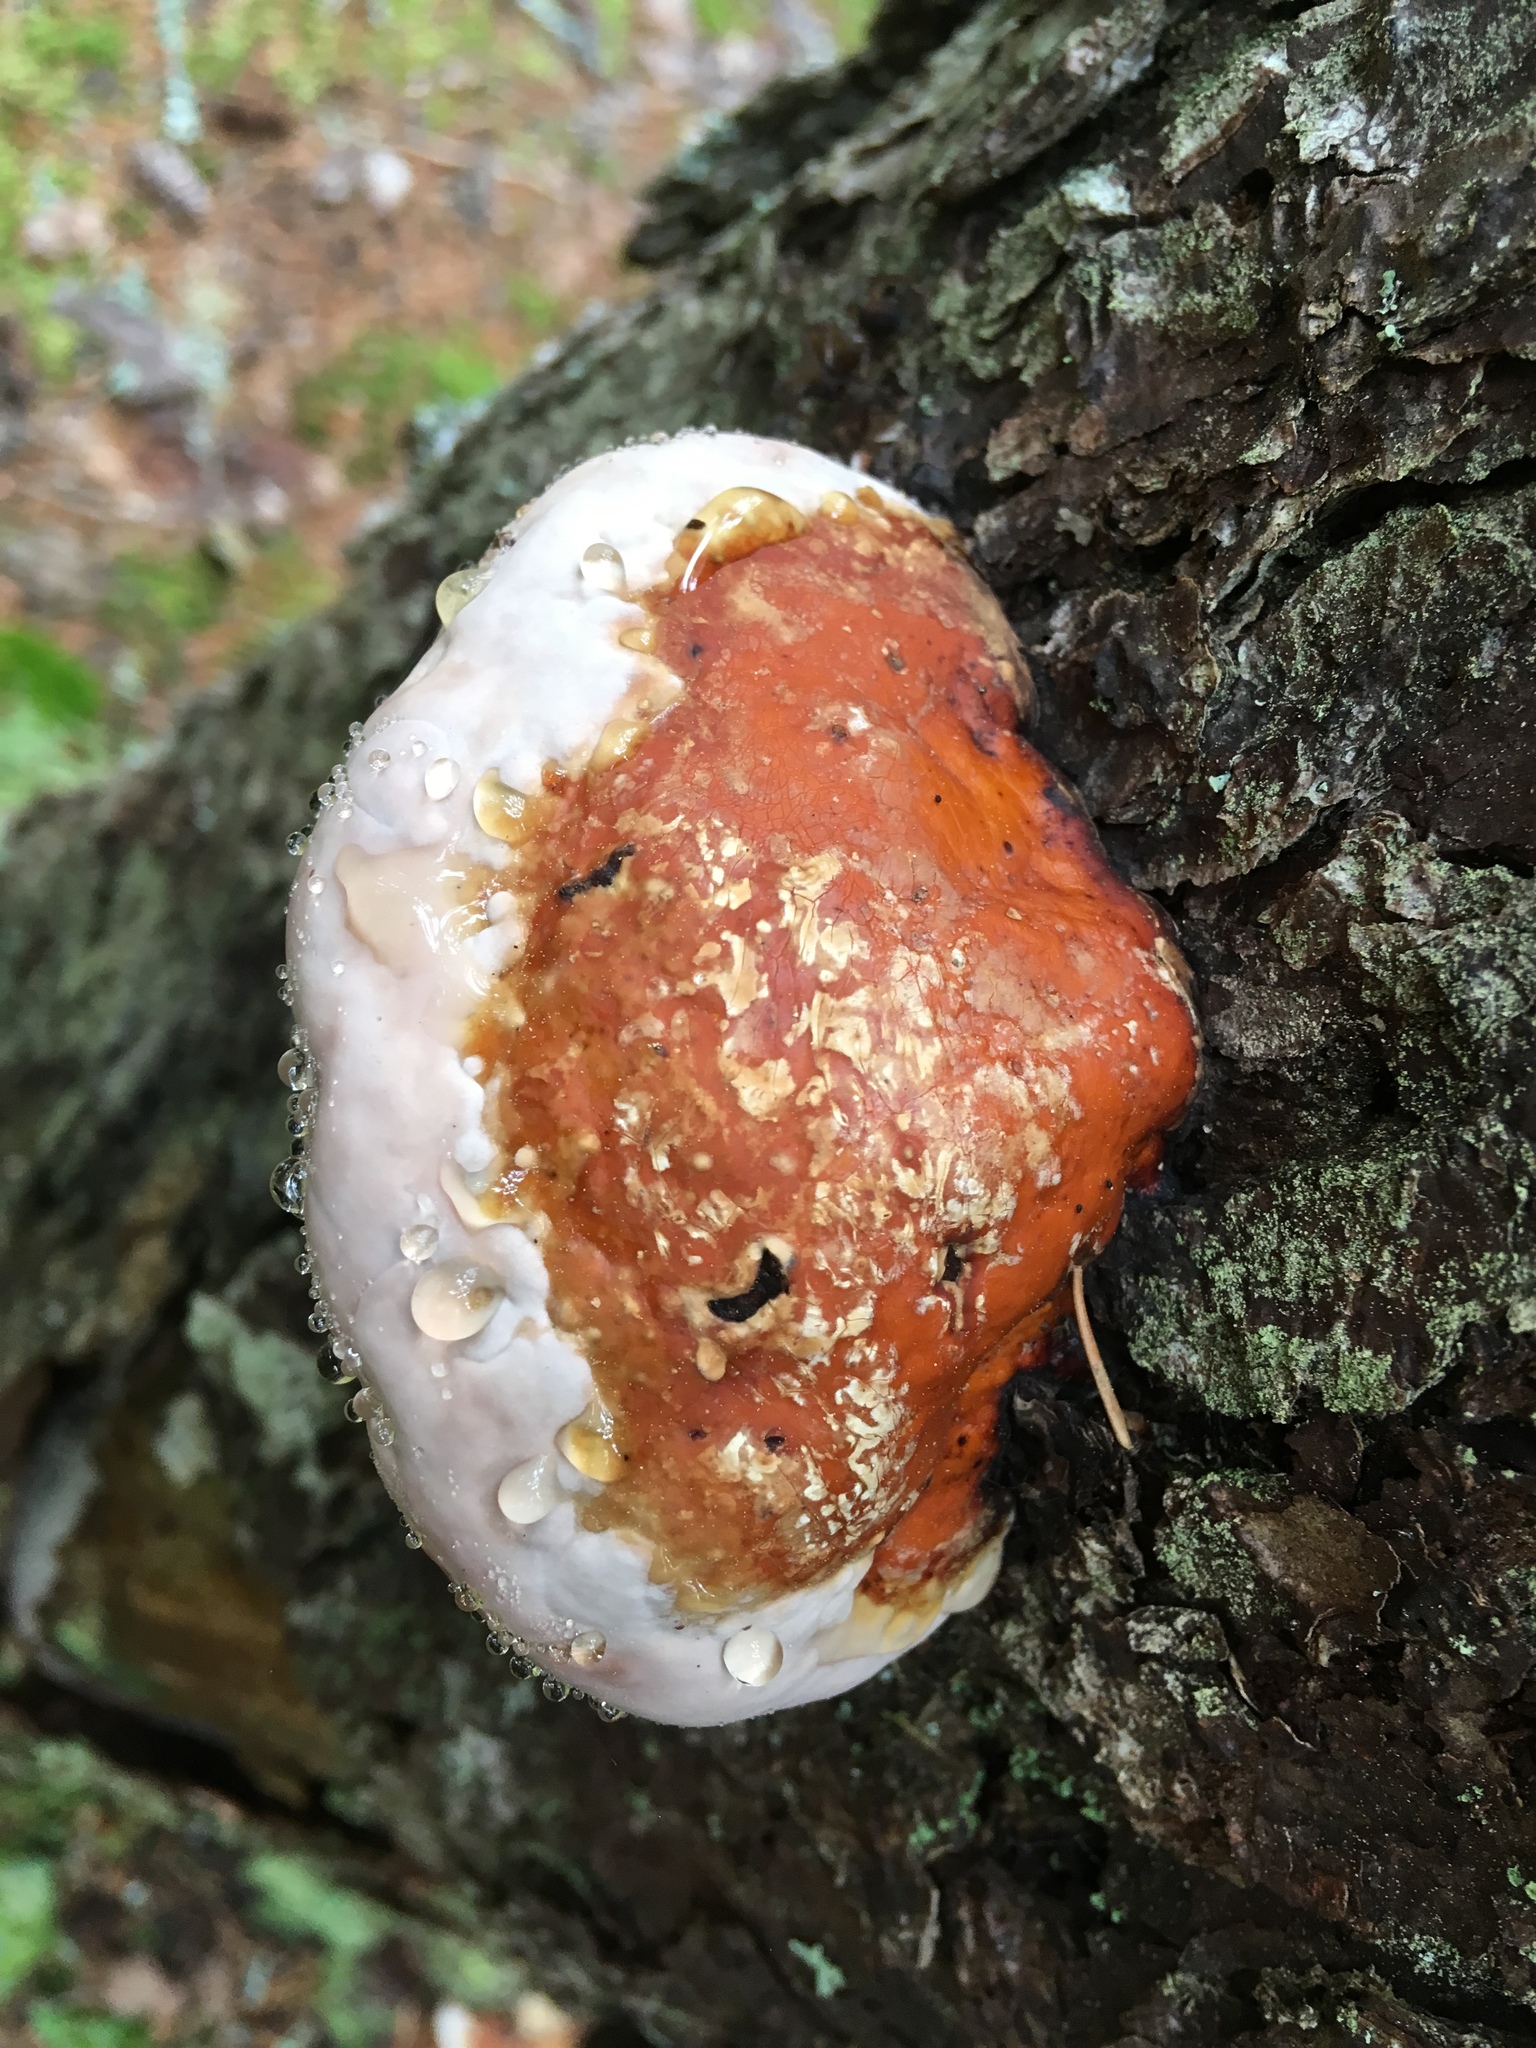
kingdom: Fungi
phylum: Basidiomycota
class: Agaricomycetes
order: Polyporales
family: Fomitopsidaceae
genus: Fomitopsis
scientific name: Fomitopsis mounceae
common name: Northern red belt
